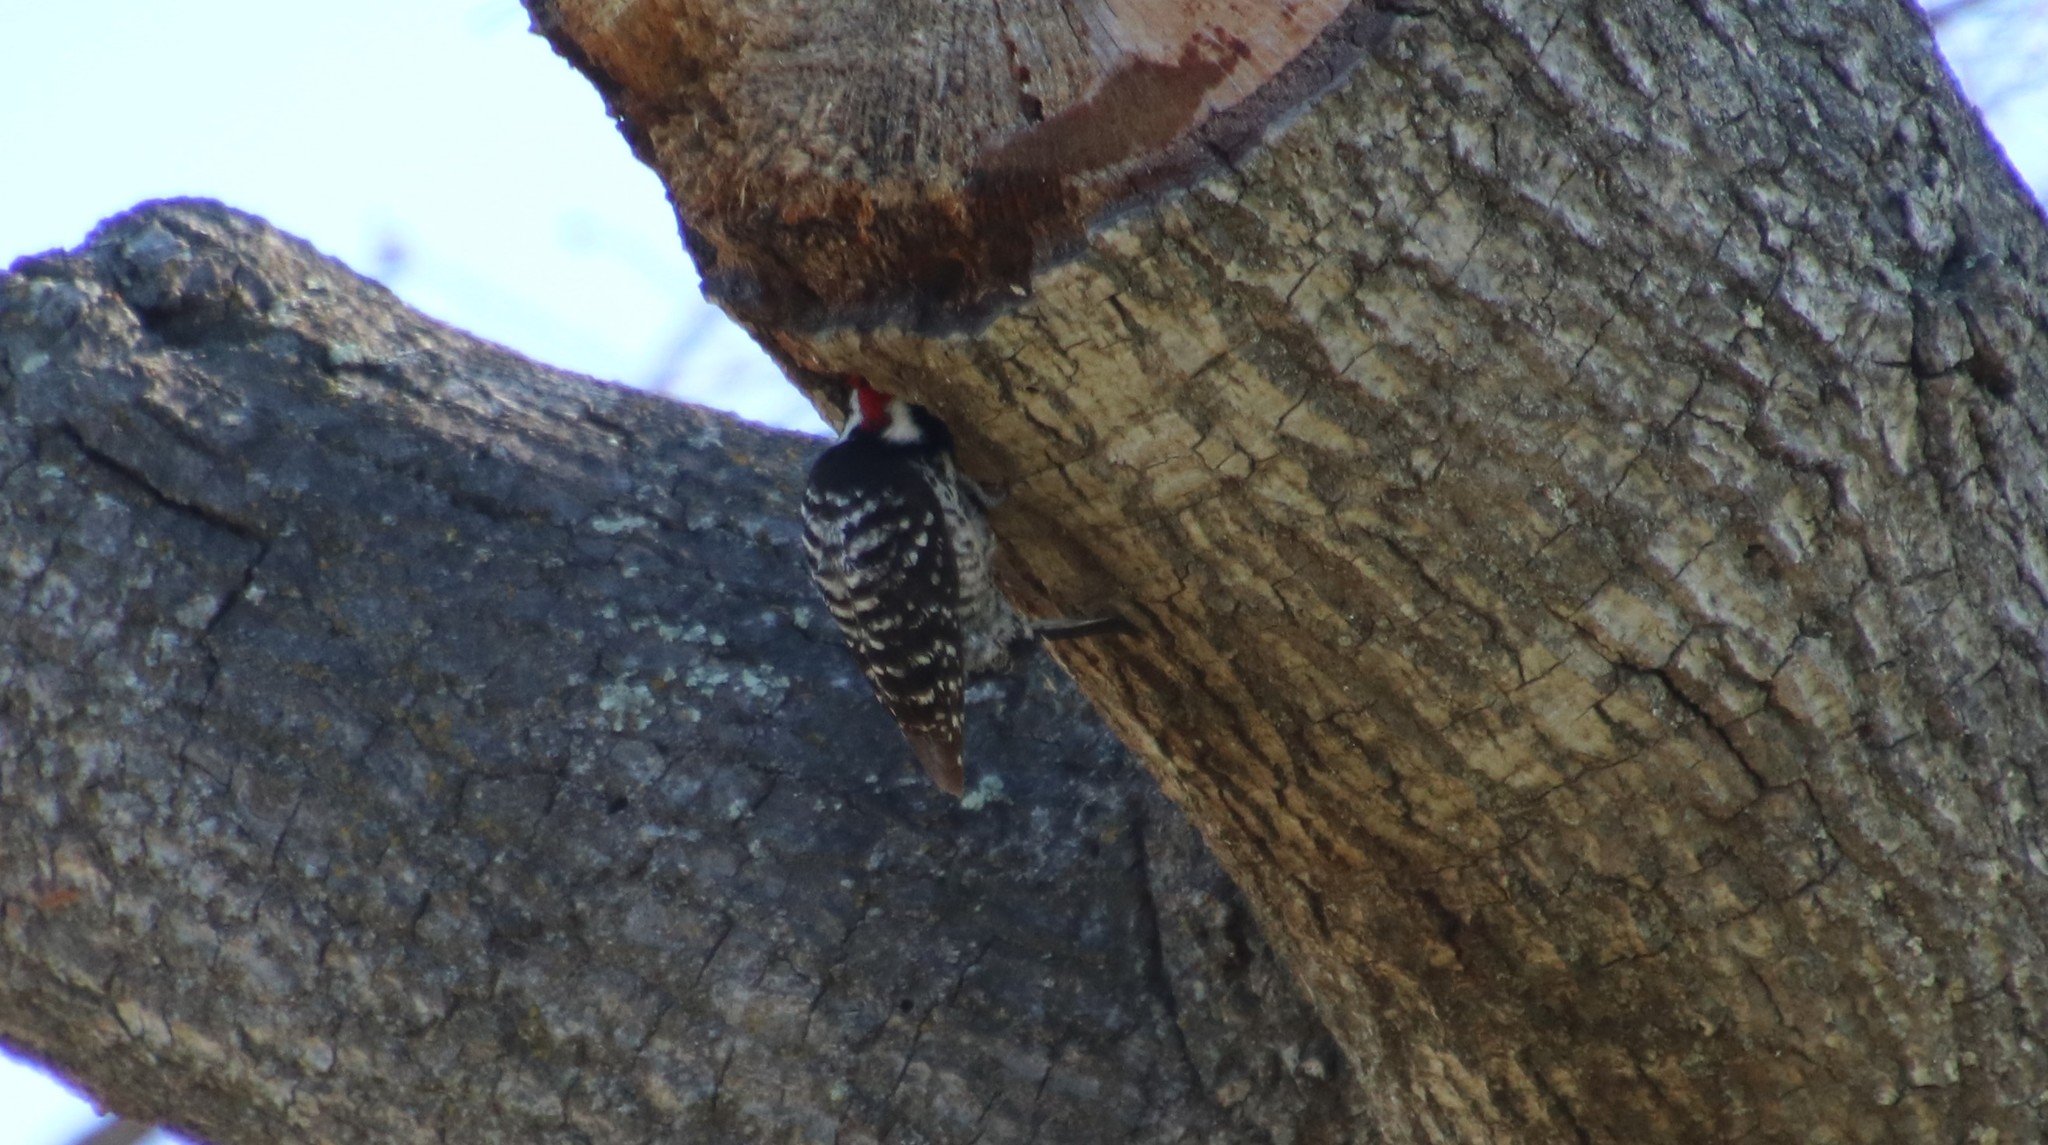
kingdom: Animalia
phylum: Chordata
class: Aves
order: Piciformes
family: Picidae
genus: Dryobates
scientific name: Dryobates nuttallii
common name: Nuttall's woodpecker
